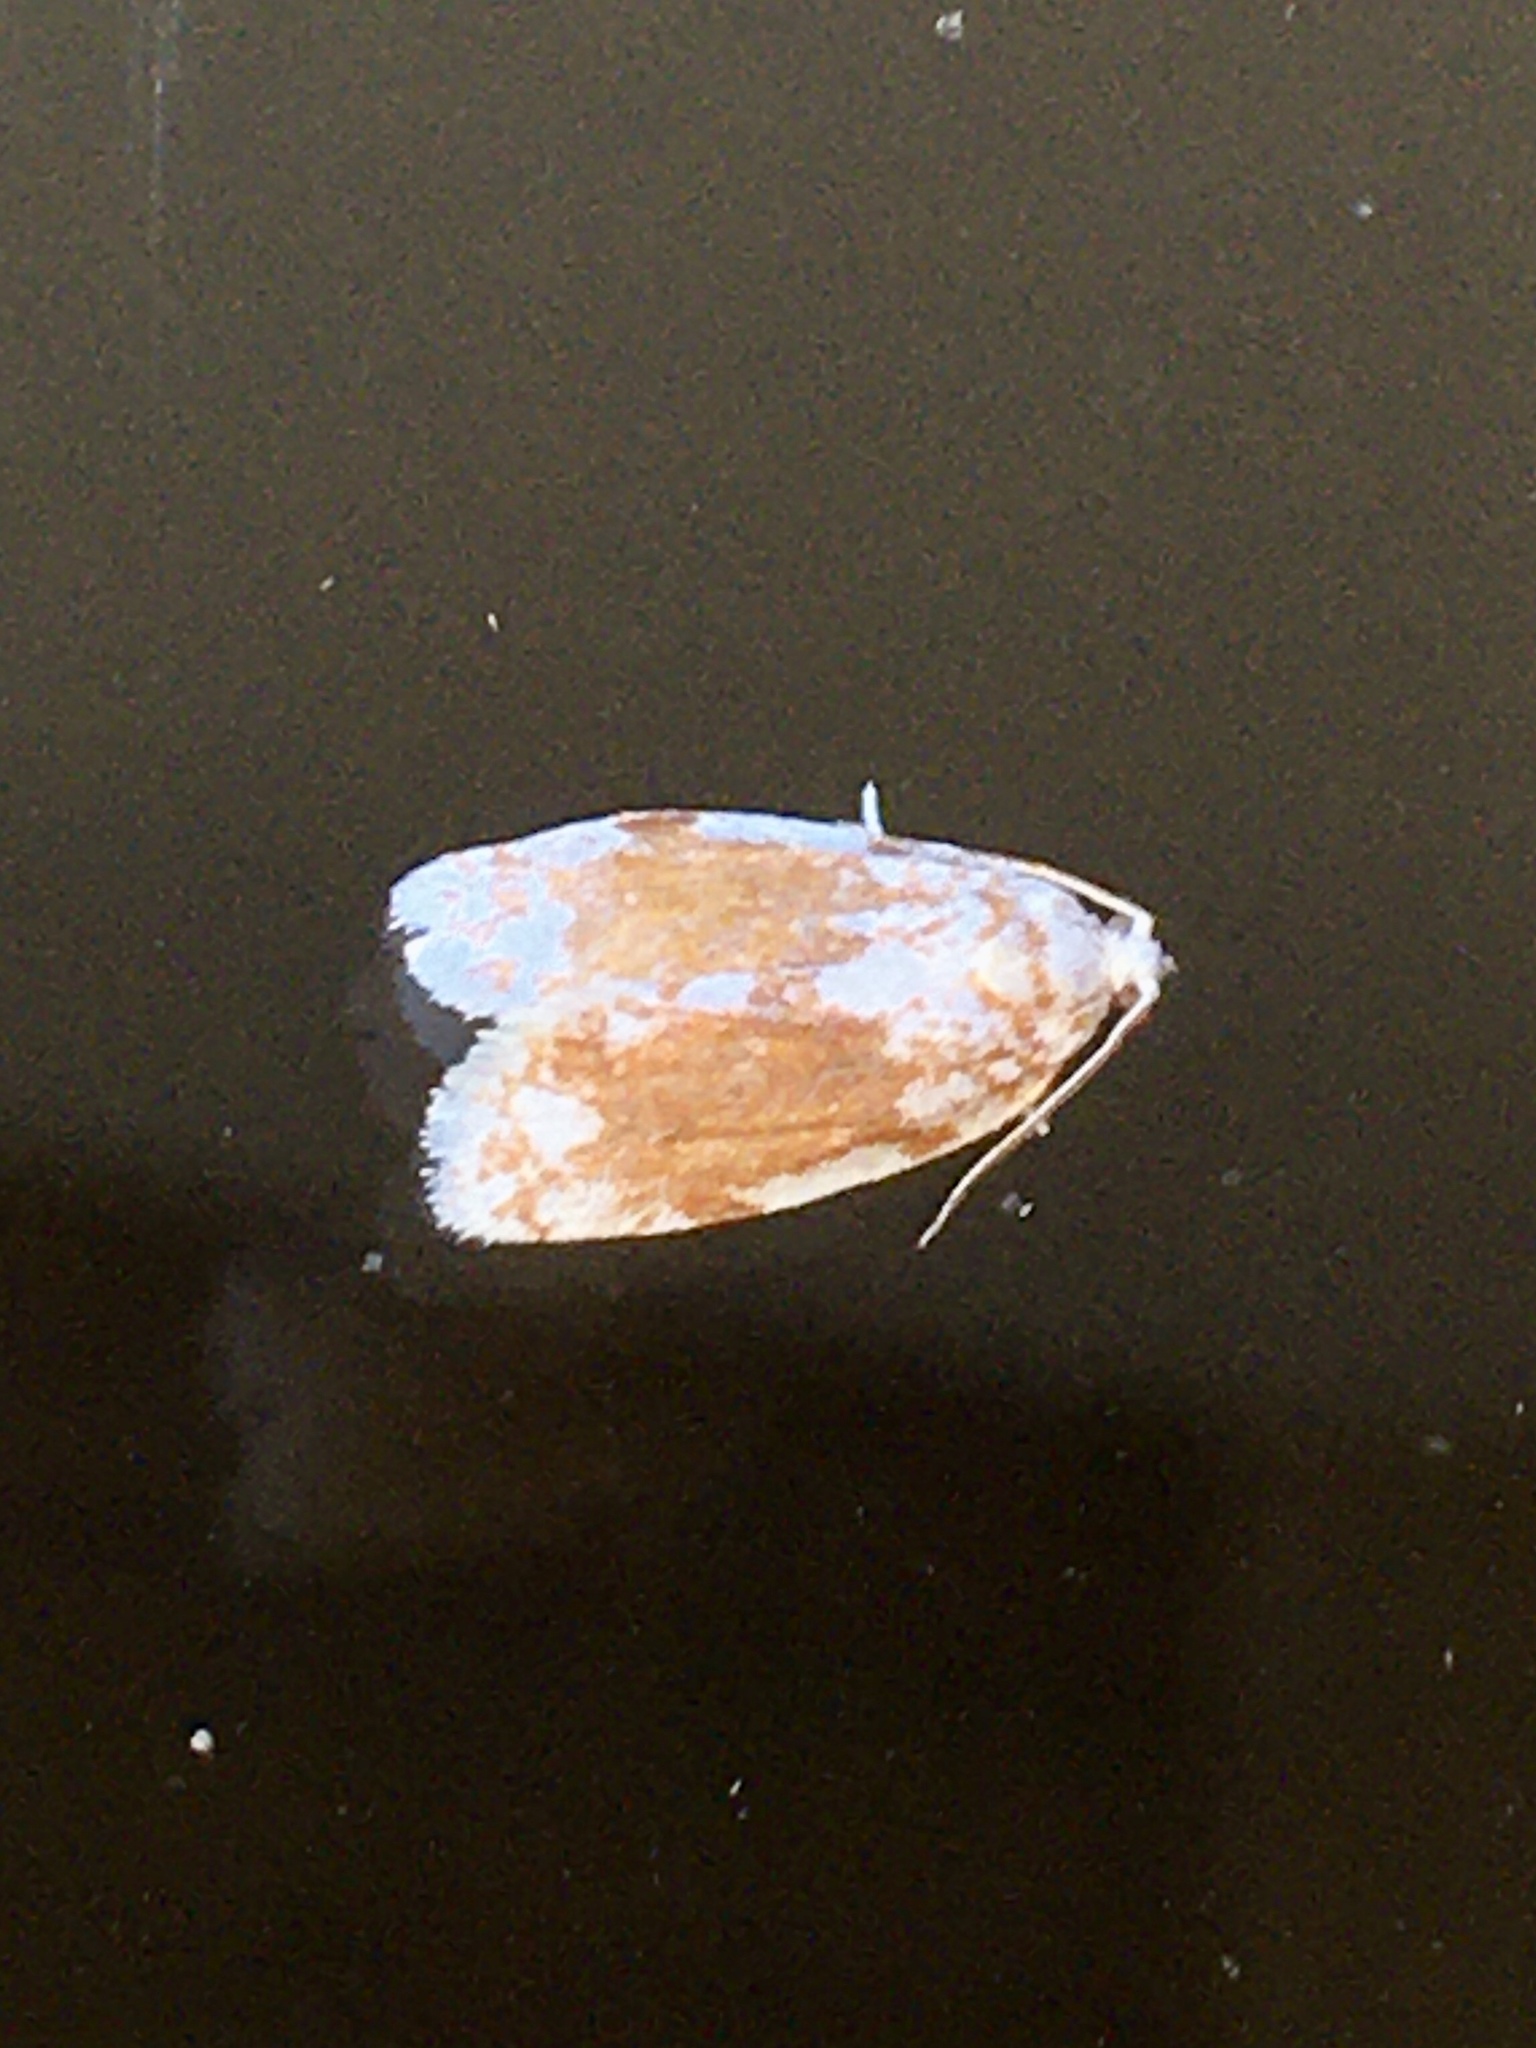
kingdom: Animalia
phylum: Arthropoda
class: Insecta
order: Lepidoptera
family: Tortricidae
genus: Argyrotaenia
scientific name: Argyrotaenia alisellana
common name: White-spotted leafroller moth
